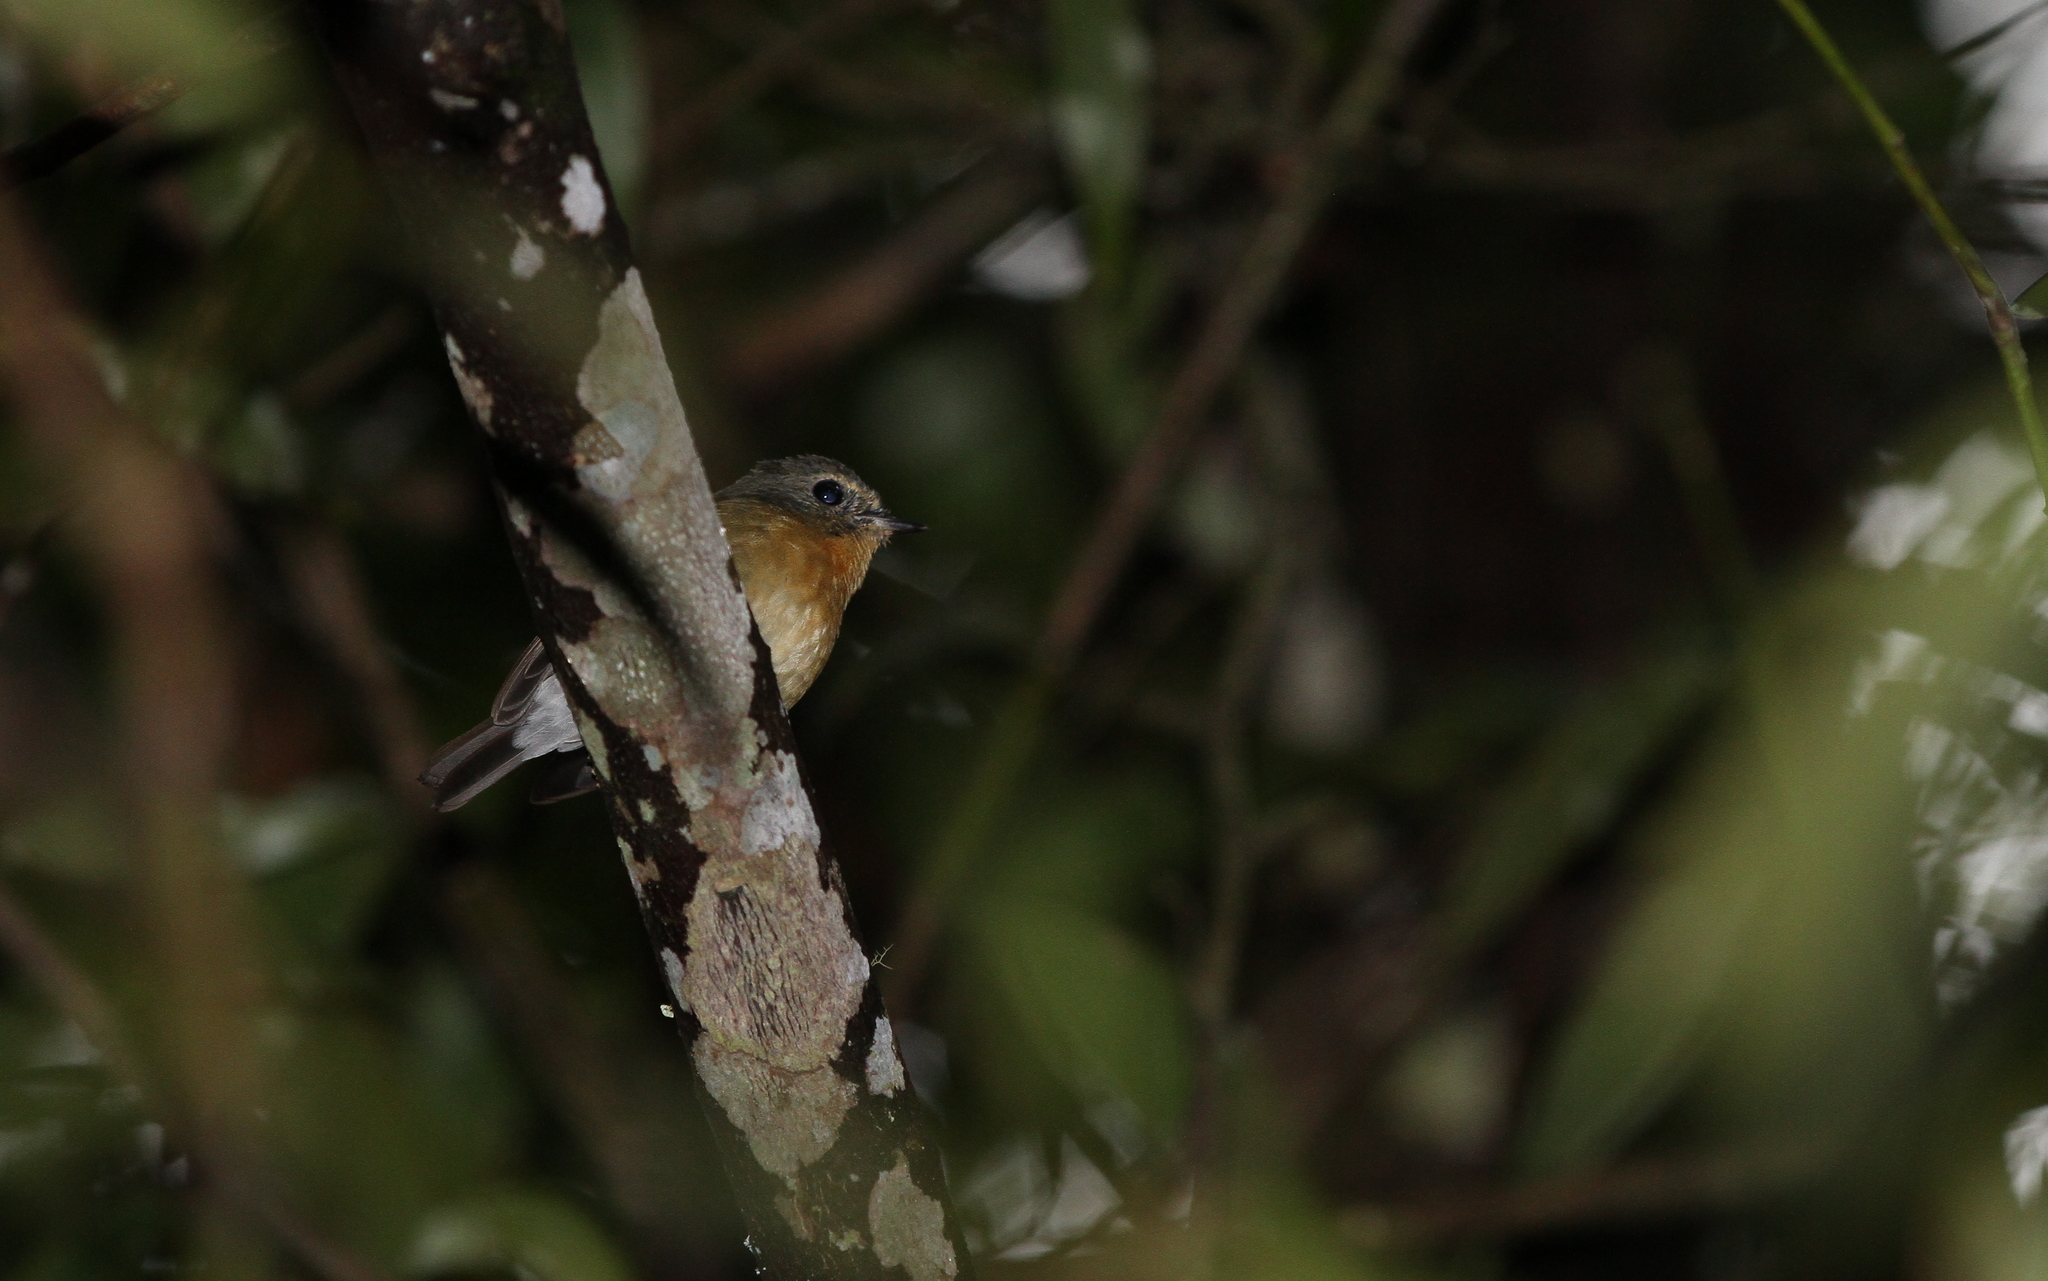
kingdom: Animalia
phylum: Chordata
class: Aves
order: Passeriformes
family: Muscicapidae
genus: Ficedula
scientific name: Ficedula hyperythra
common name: Snowy-browed flycatcher
